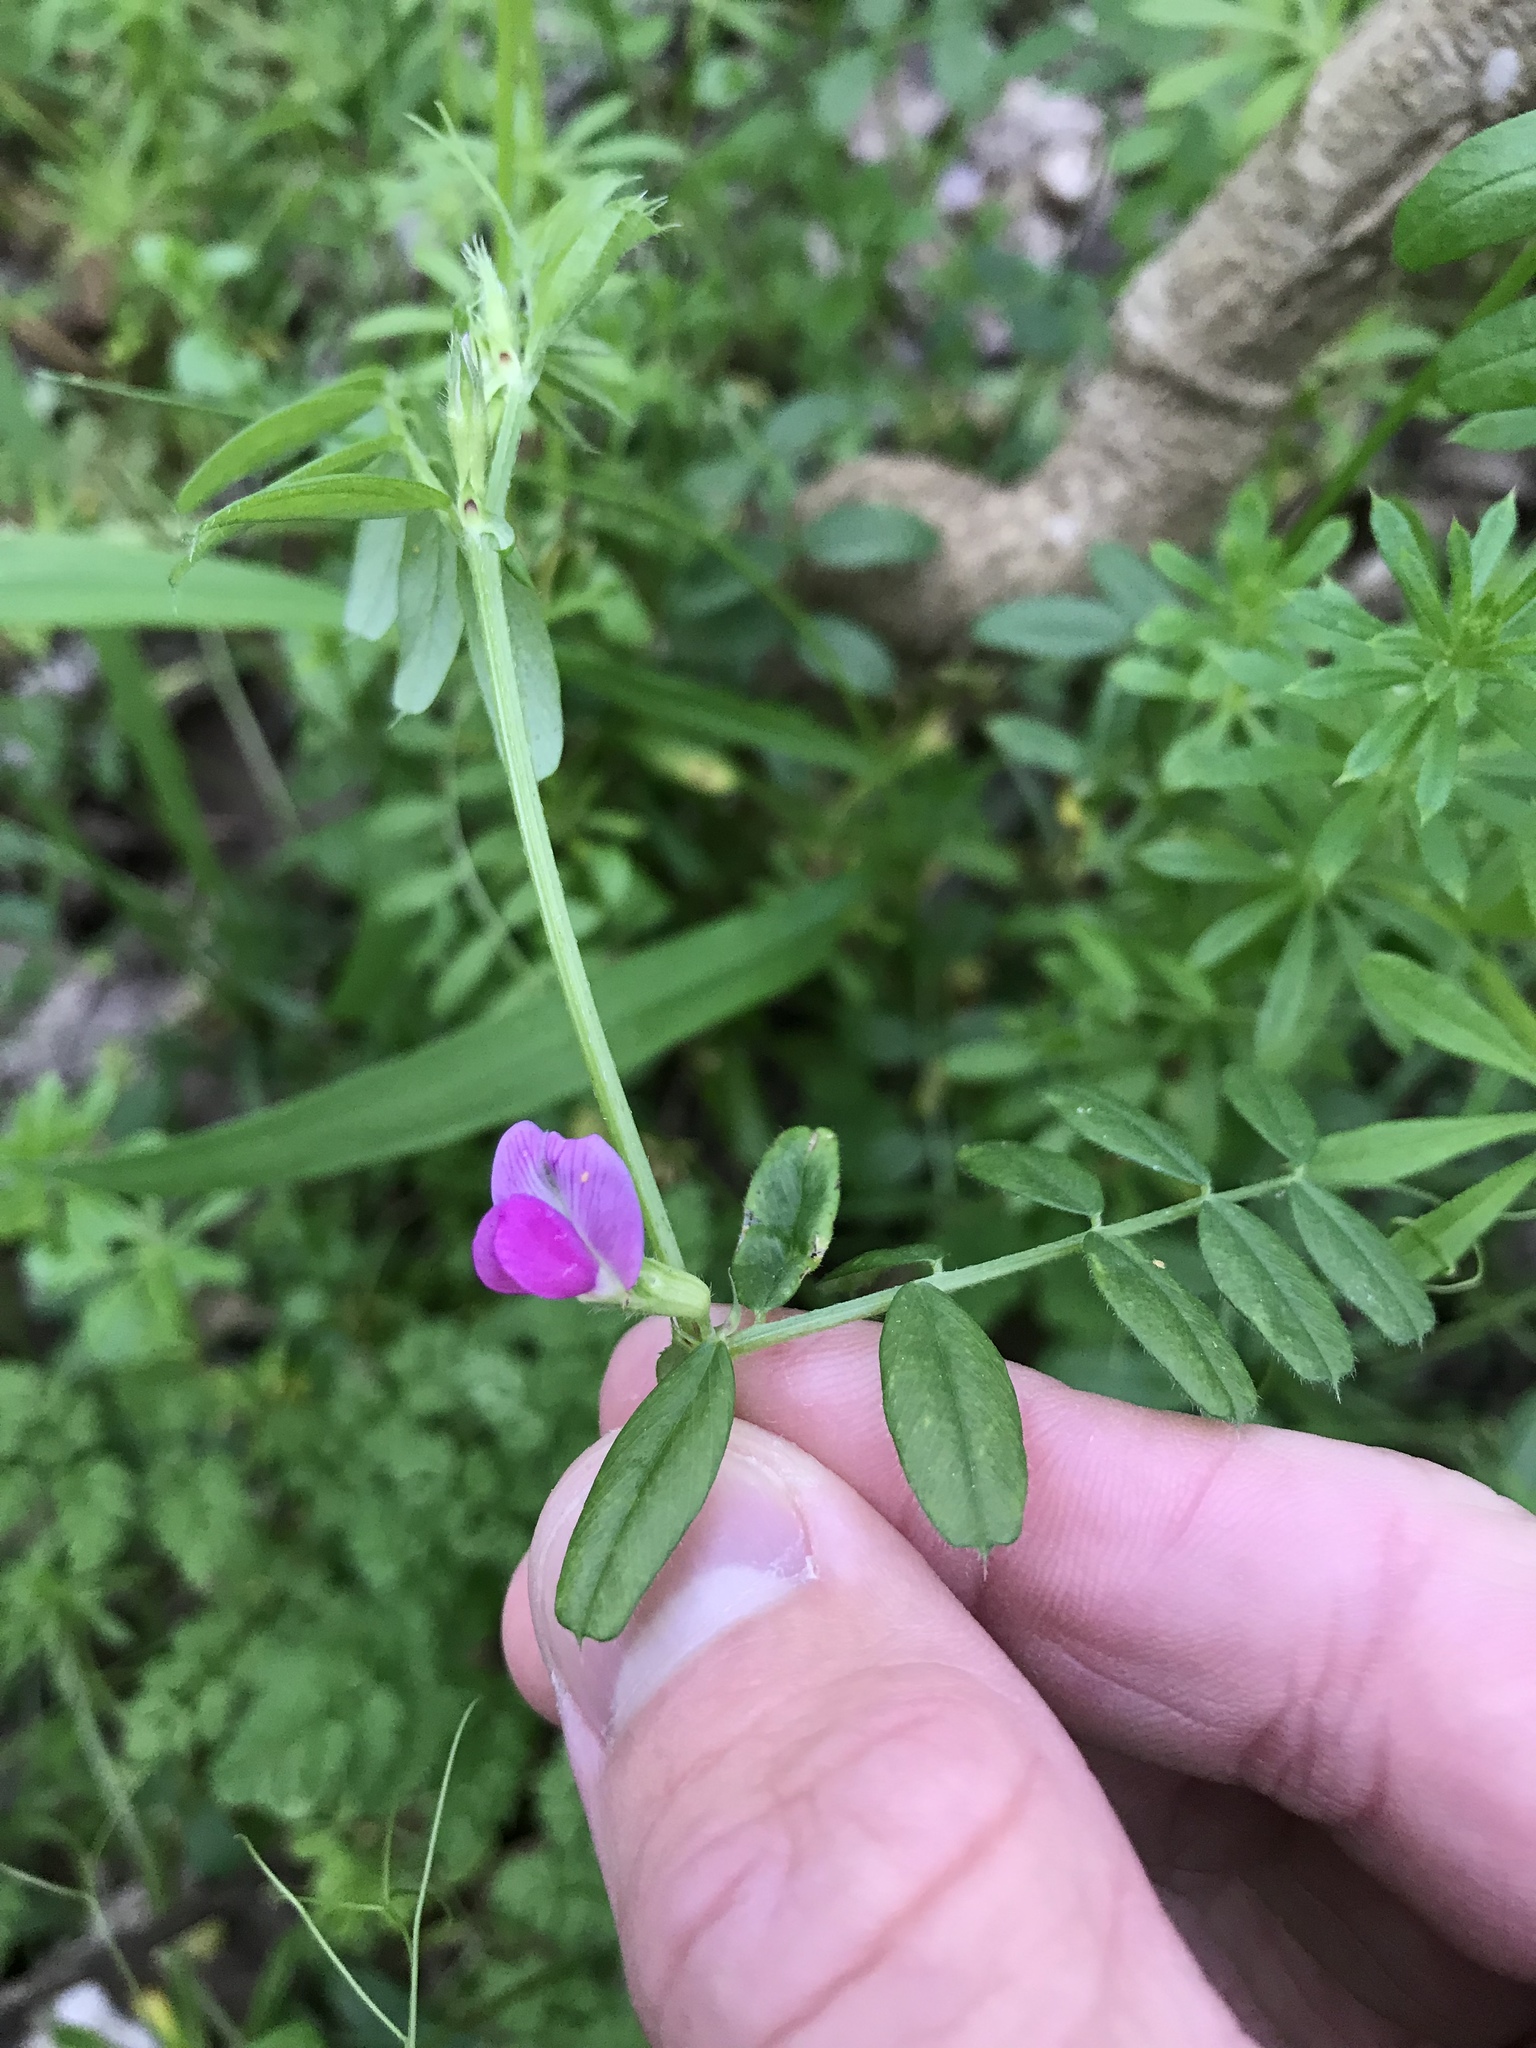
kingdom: Plantae
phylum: Tracheophyta
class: Magnoliopsida
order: Fabales
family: Fabaceae
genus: Vicia
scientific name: Vicia sativa
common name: Garden vetch
